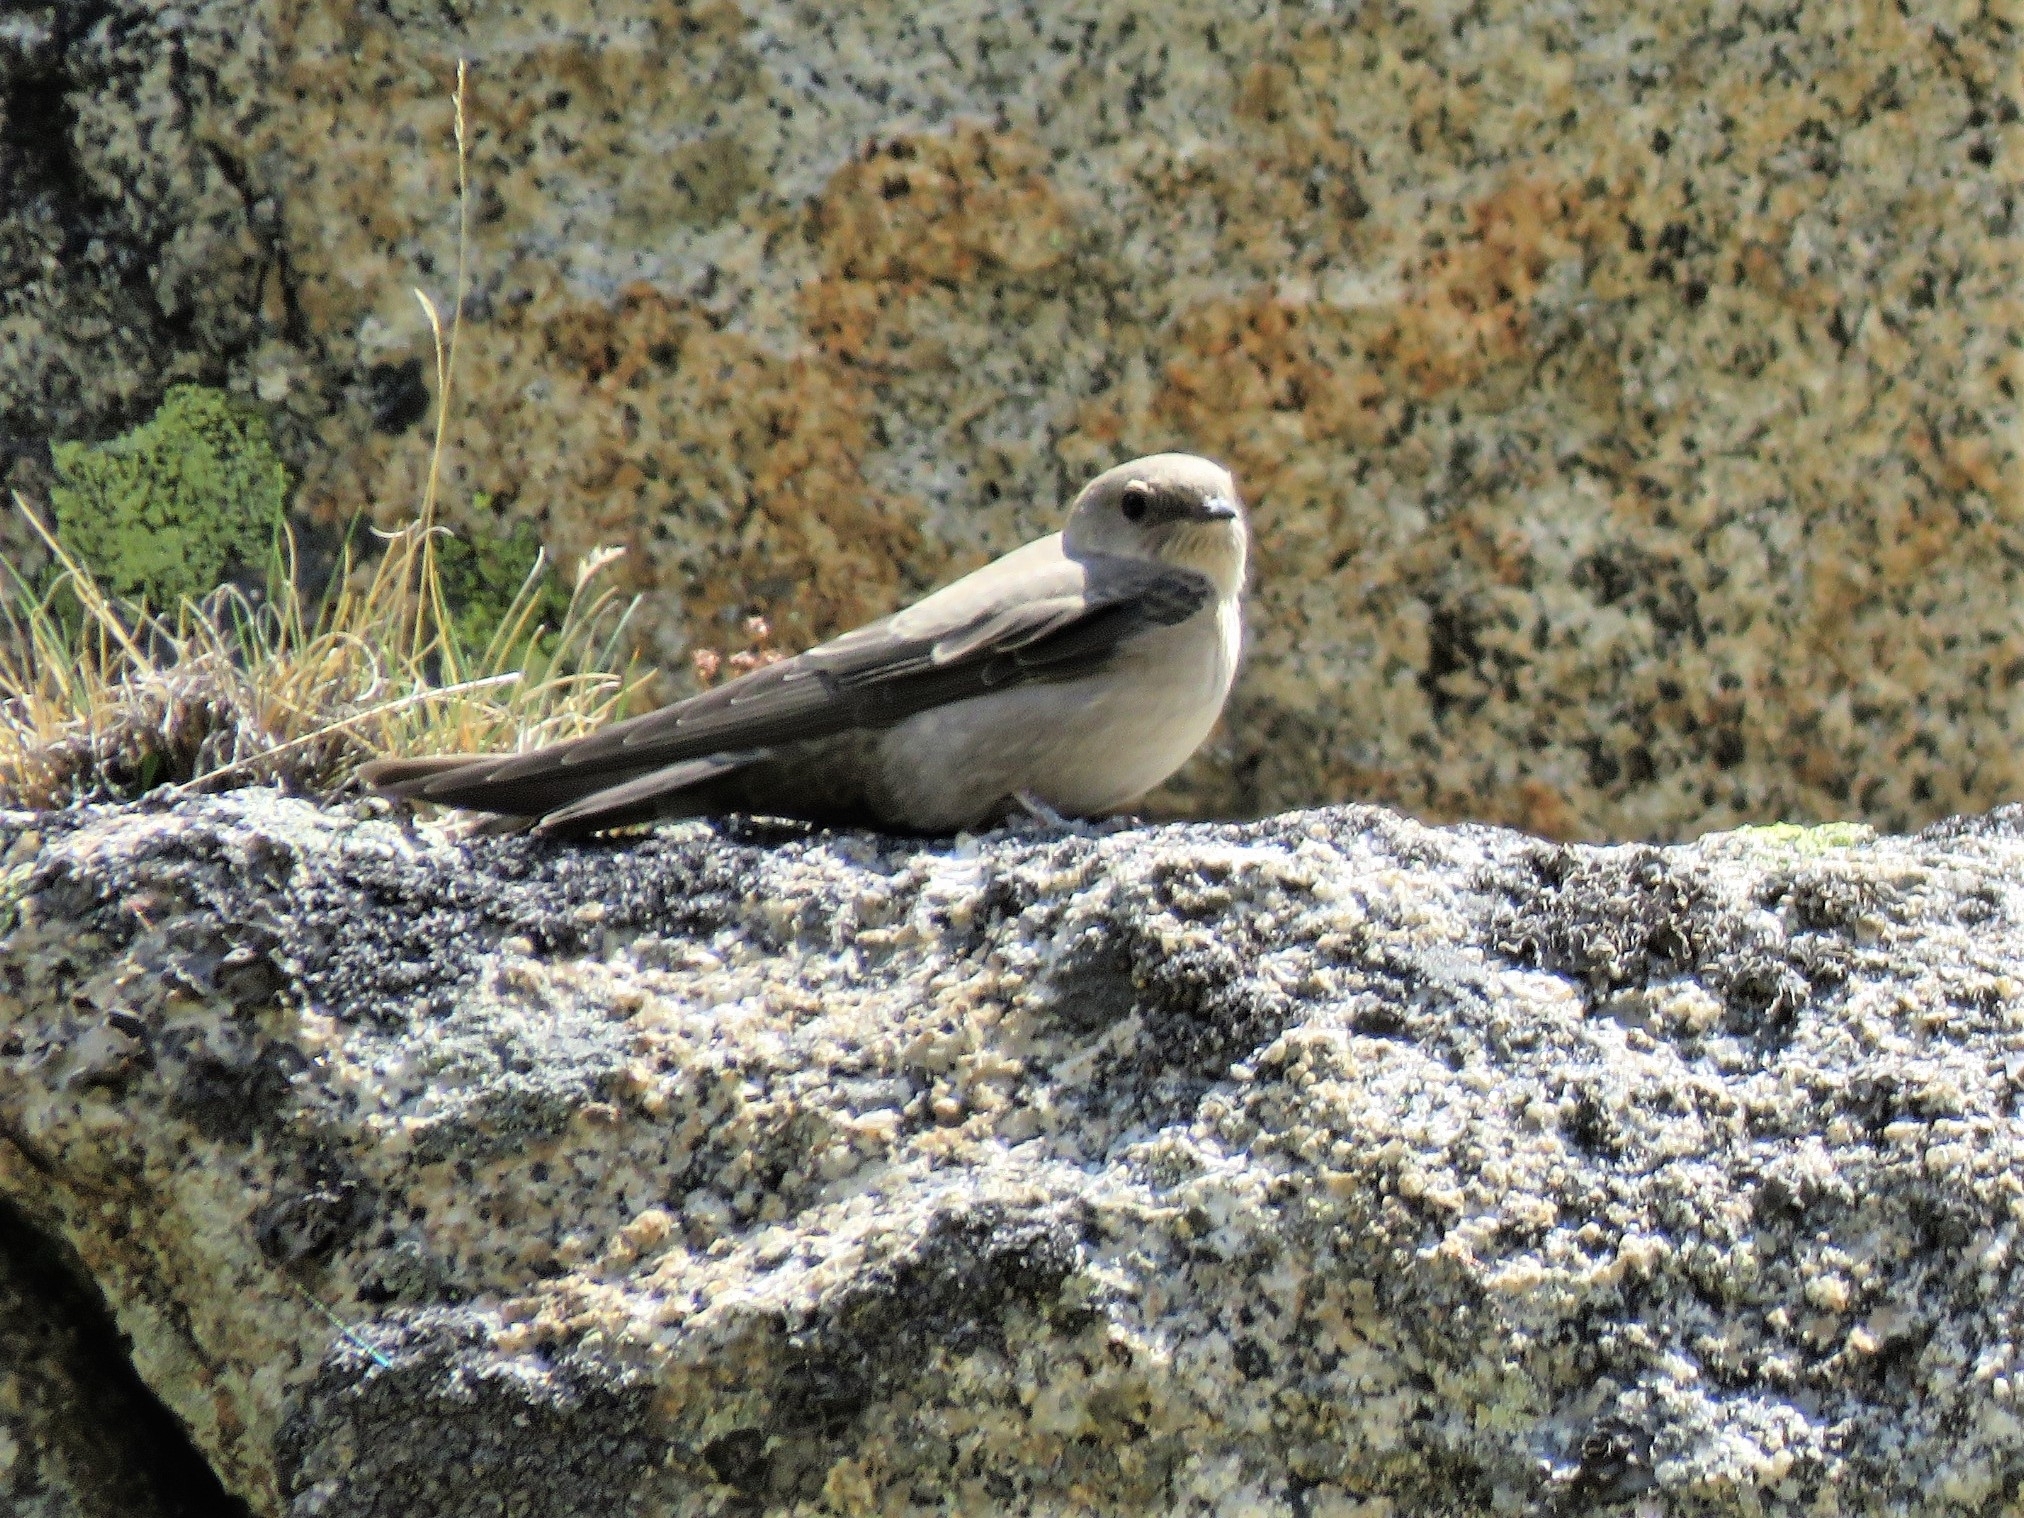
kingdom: Animalia
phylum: Chordata
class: Aves
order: Passeriformes
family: Hirundinidae
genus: Ptyonoprogne
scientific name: Ptyonoprogne rupestris
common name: Eurasian crag martin
